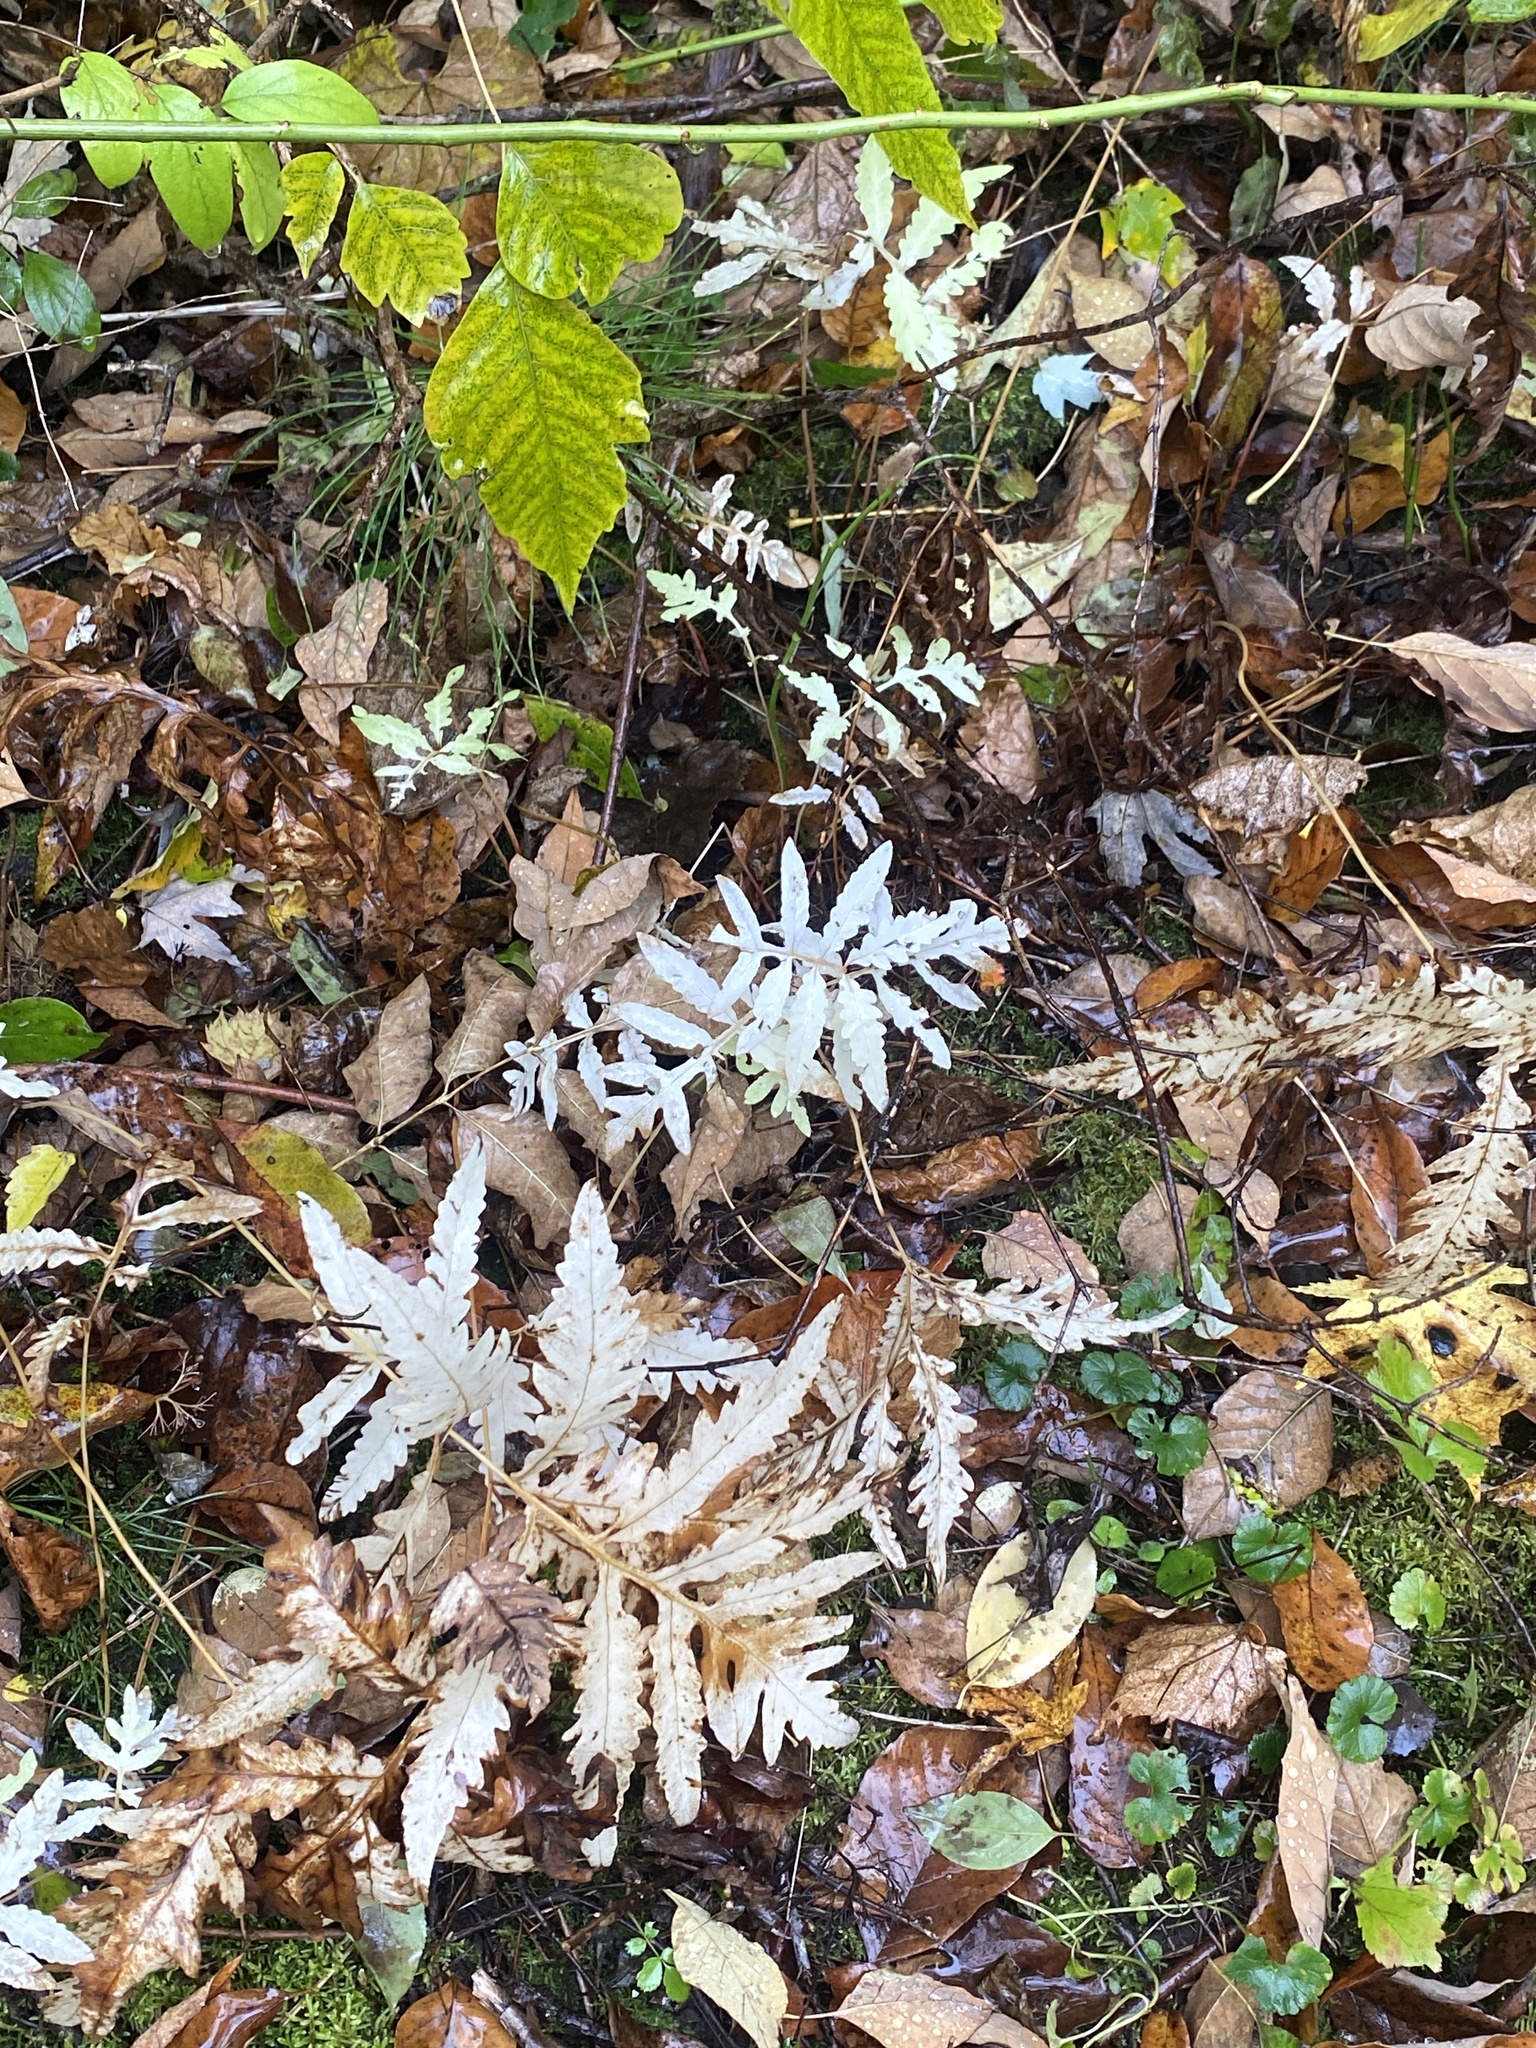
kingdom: Plantae
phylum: Tracheophyta
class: Polypodiopsida
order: Polypodiales
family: Onocleaceae
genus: Onoclea
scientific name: Onoclea sensibilis
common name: Sensitive fern
